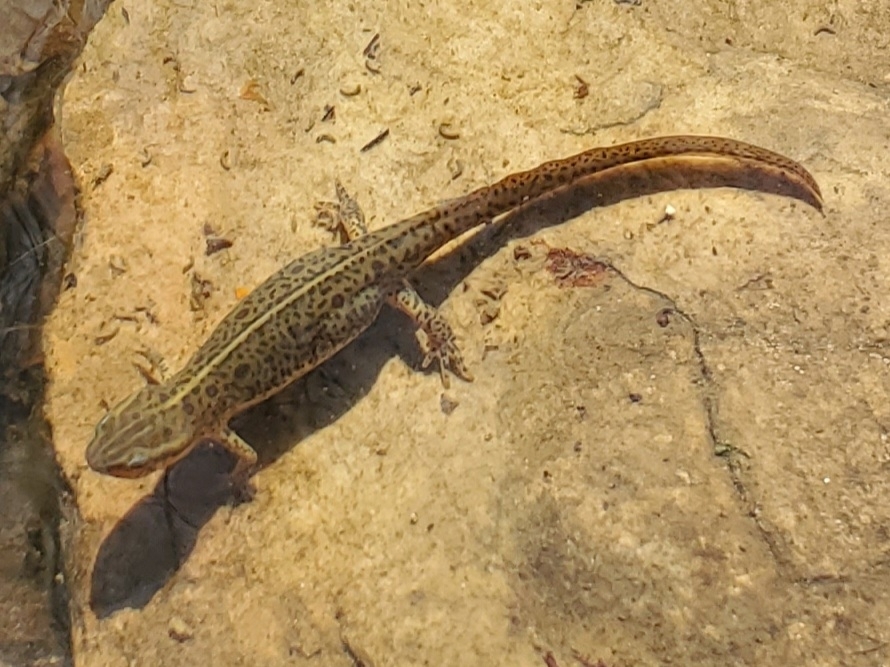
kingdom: Animalia
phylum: Chordata
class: Amphibia
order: Caudata
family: Salamandridae
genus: Notophthalmus
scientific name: Notophthalmus viridescens
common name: Eastern newt
